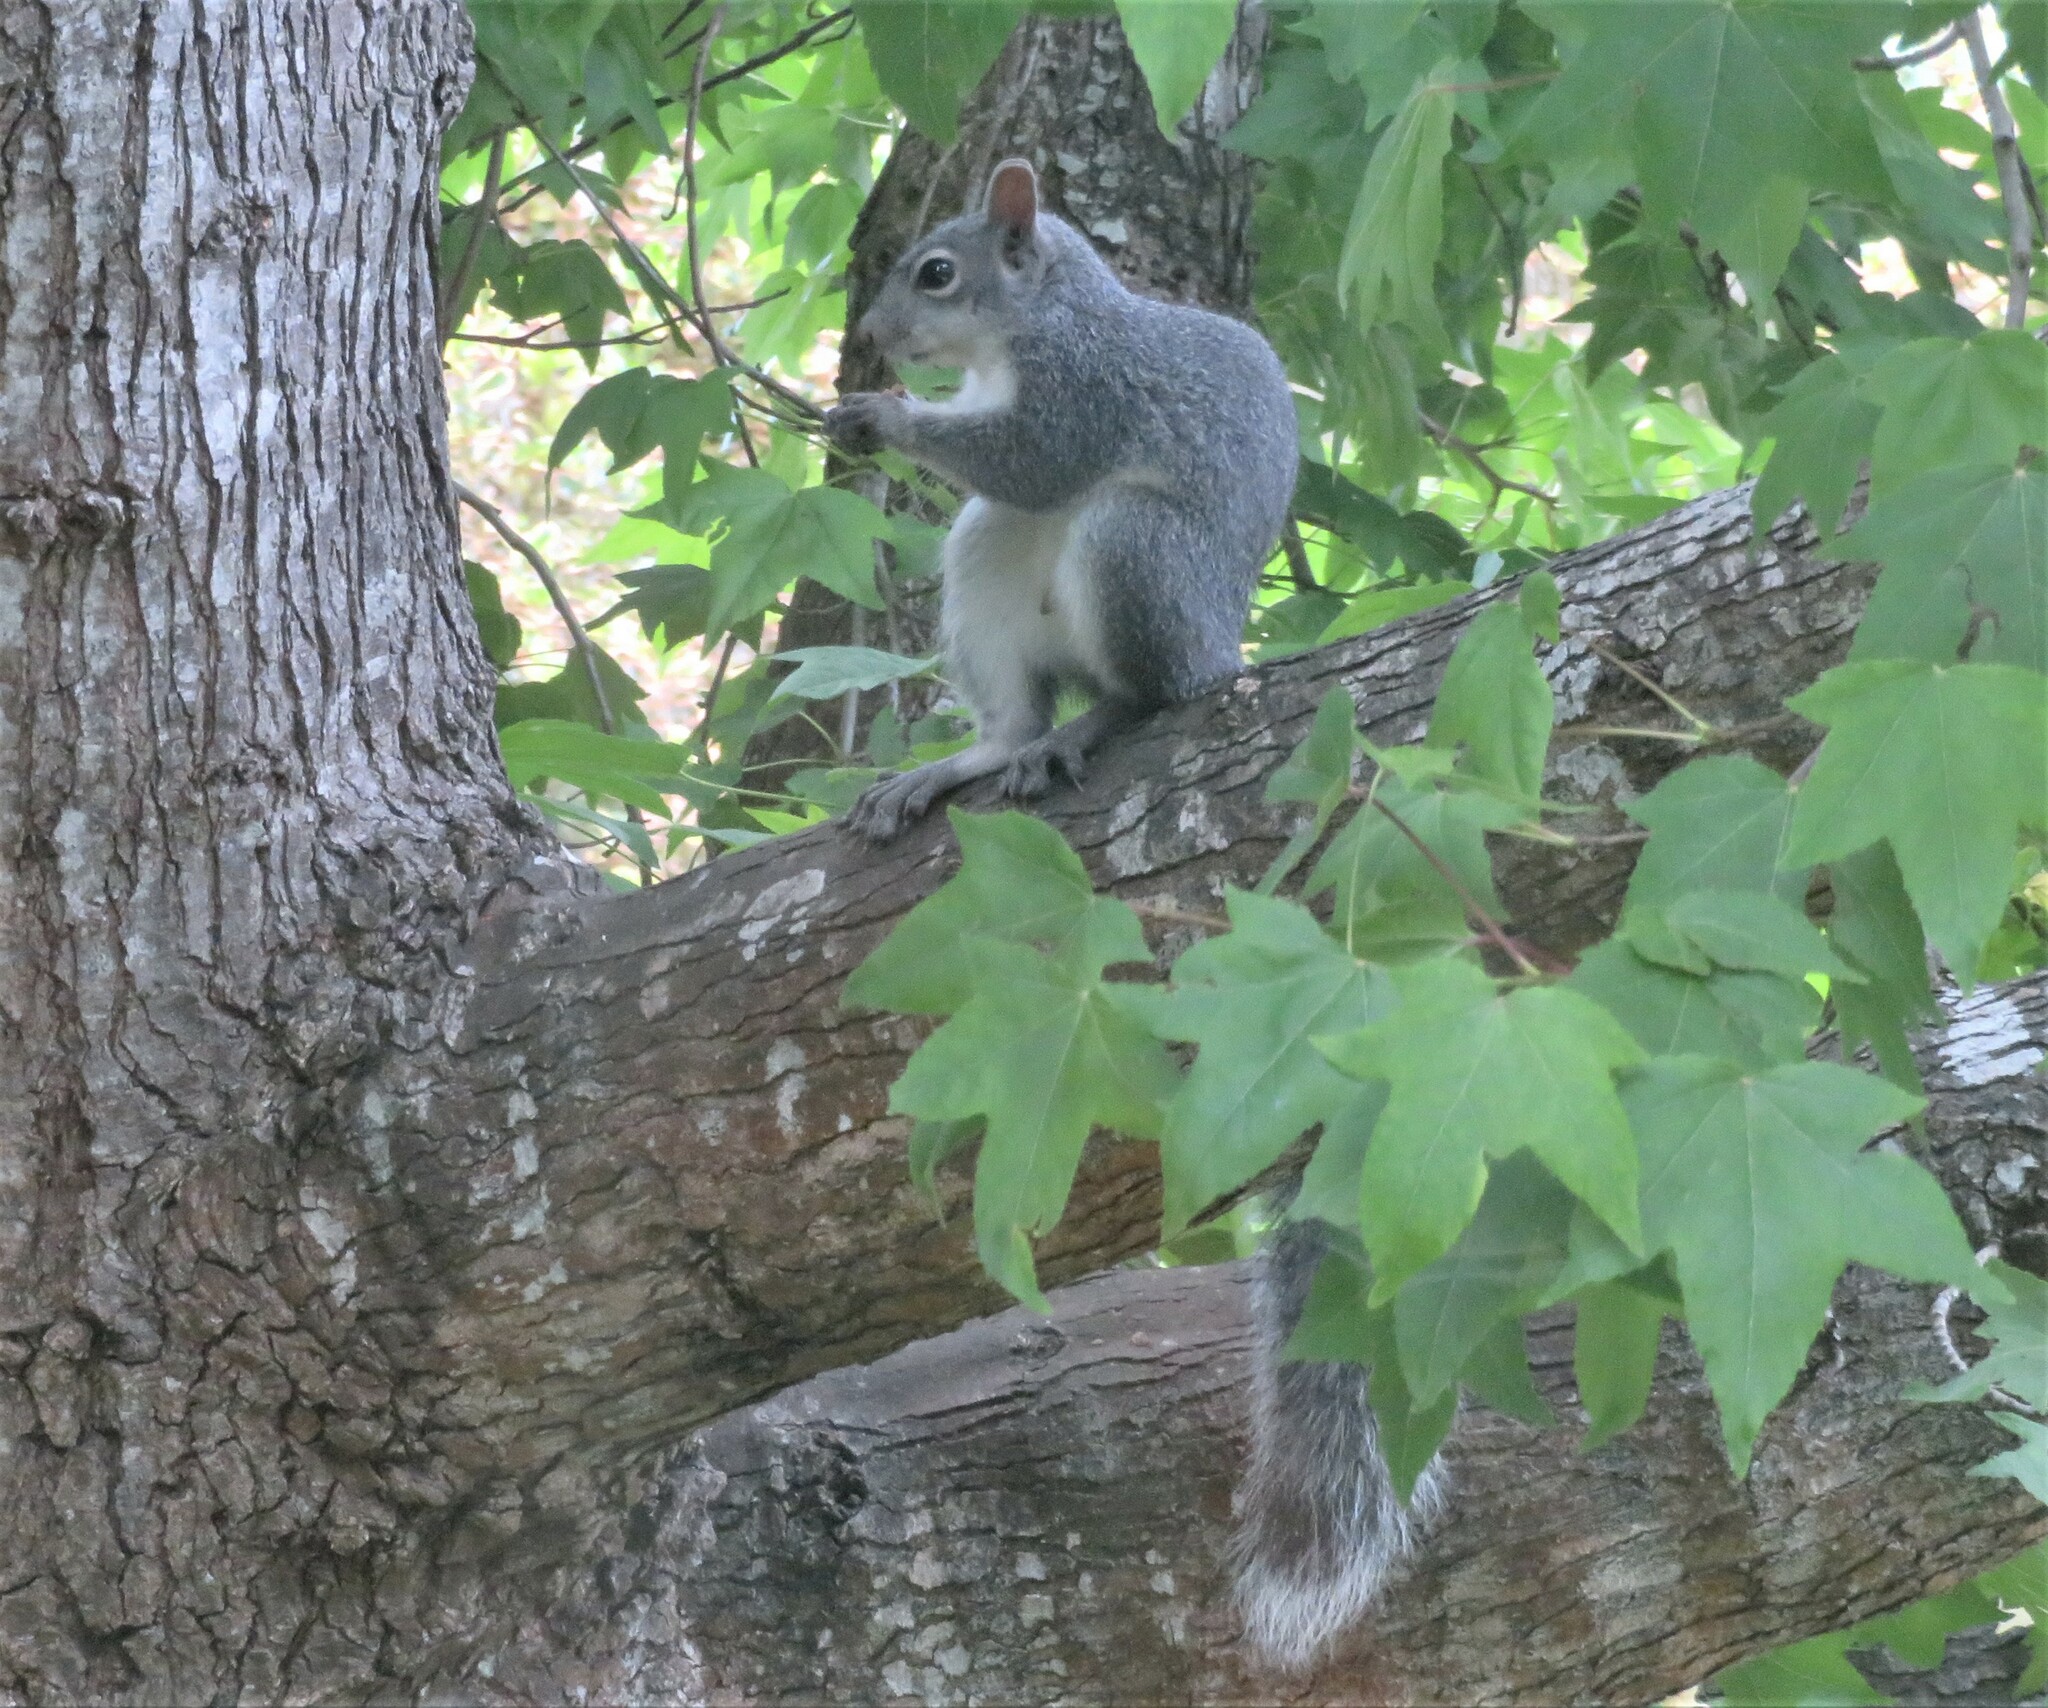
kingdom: Animalia
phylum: Chordata
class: Mammalia
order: Rodentia
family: Sciuridae
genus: Sciurus
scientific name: Sciurus griseus
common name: Western gray squirrel
